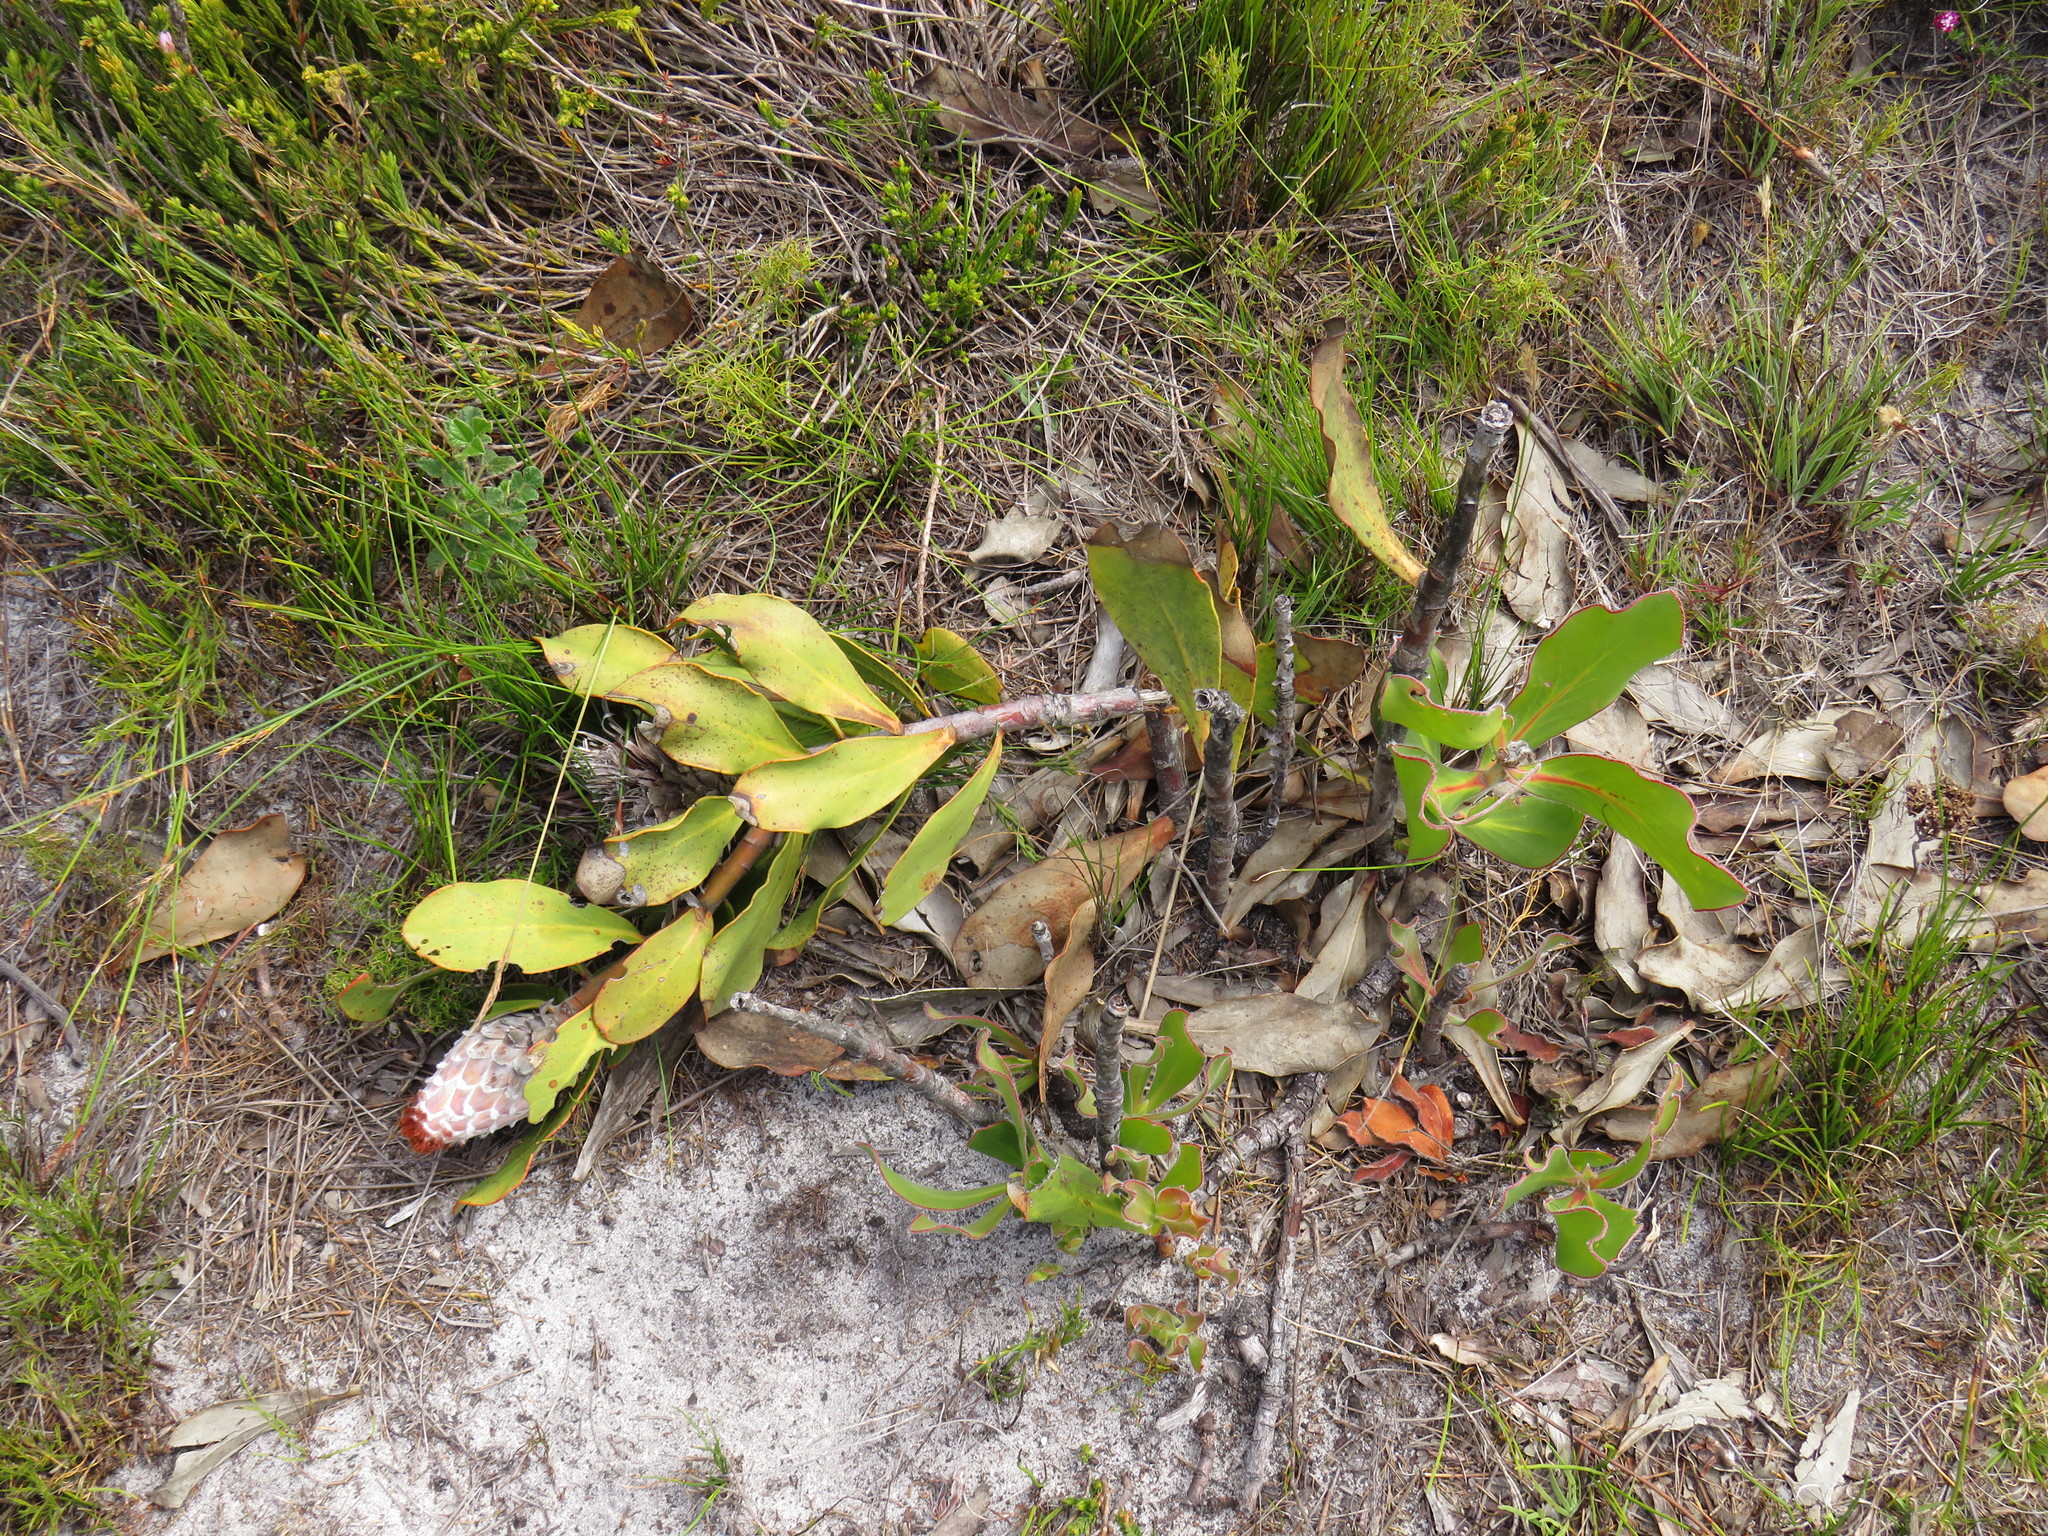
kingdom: Plantae
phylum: Tracheophyta
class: Magnoliopsida
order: Proteales
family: Proteaceae
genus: Protea
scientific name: Protea speciosa
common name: Brown-beard sugarbush
